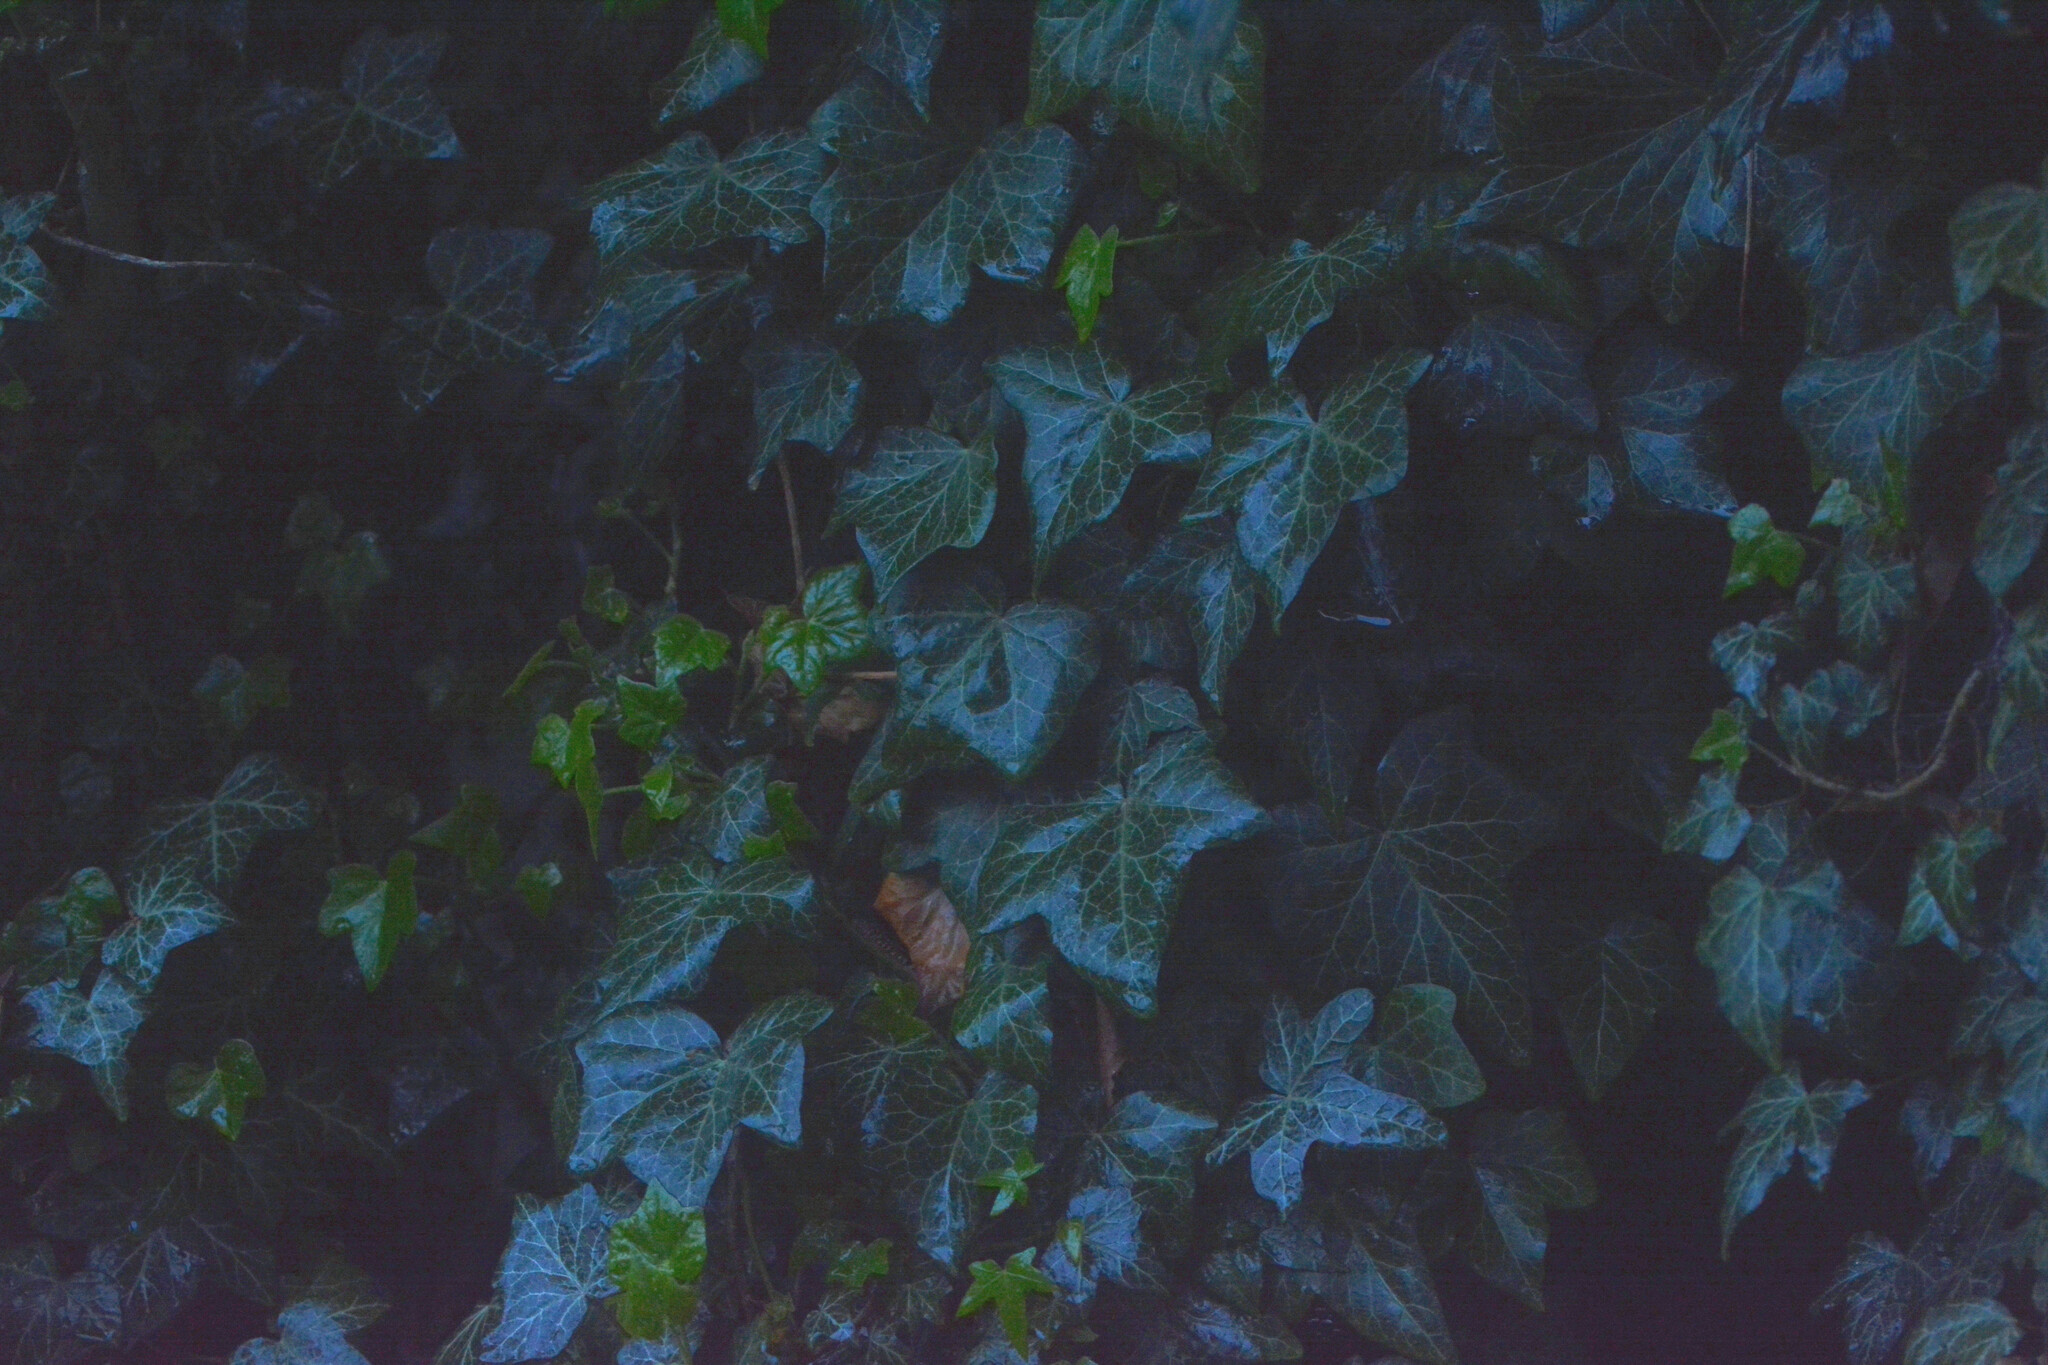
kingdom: Plantae
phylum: Tracheophyta
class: Magnoliopsida
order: Apiales
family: Araliaceae
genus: Hedera
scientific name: Hedera helix
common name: Ivy
